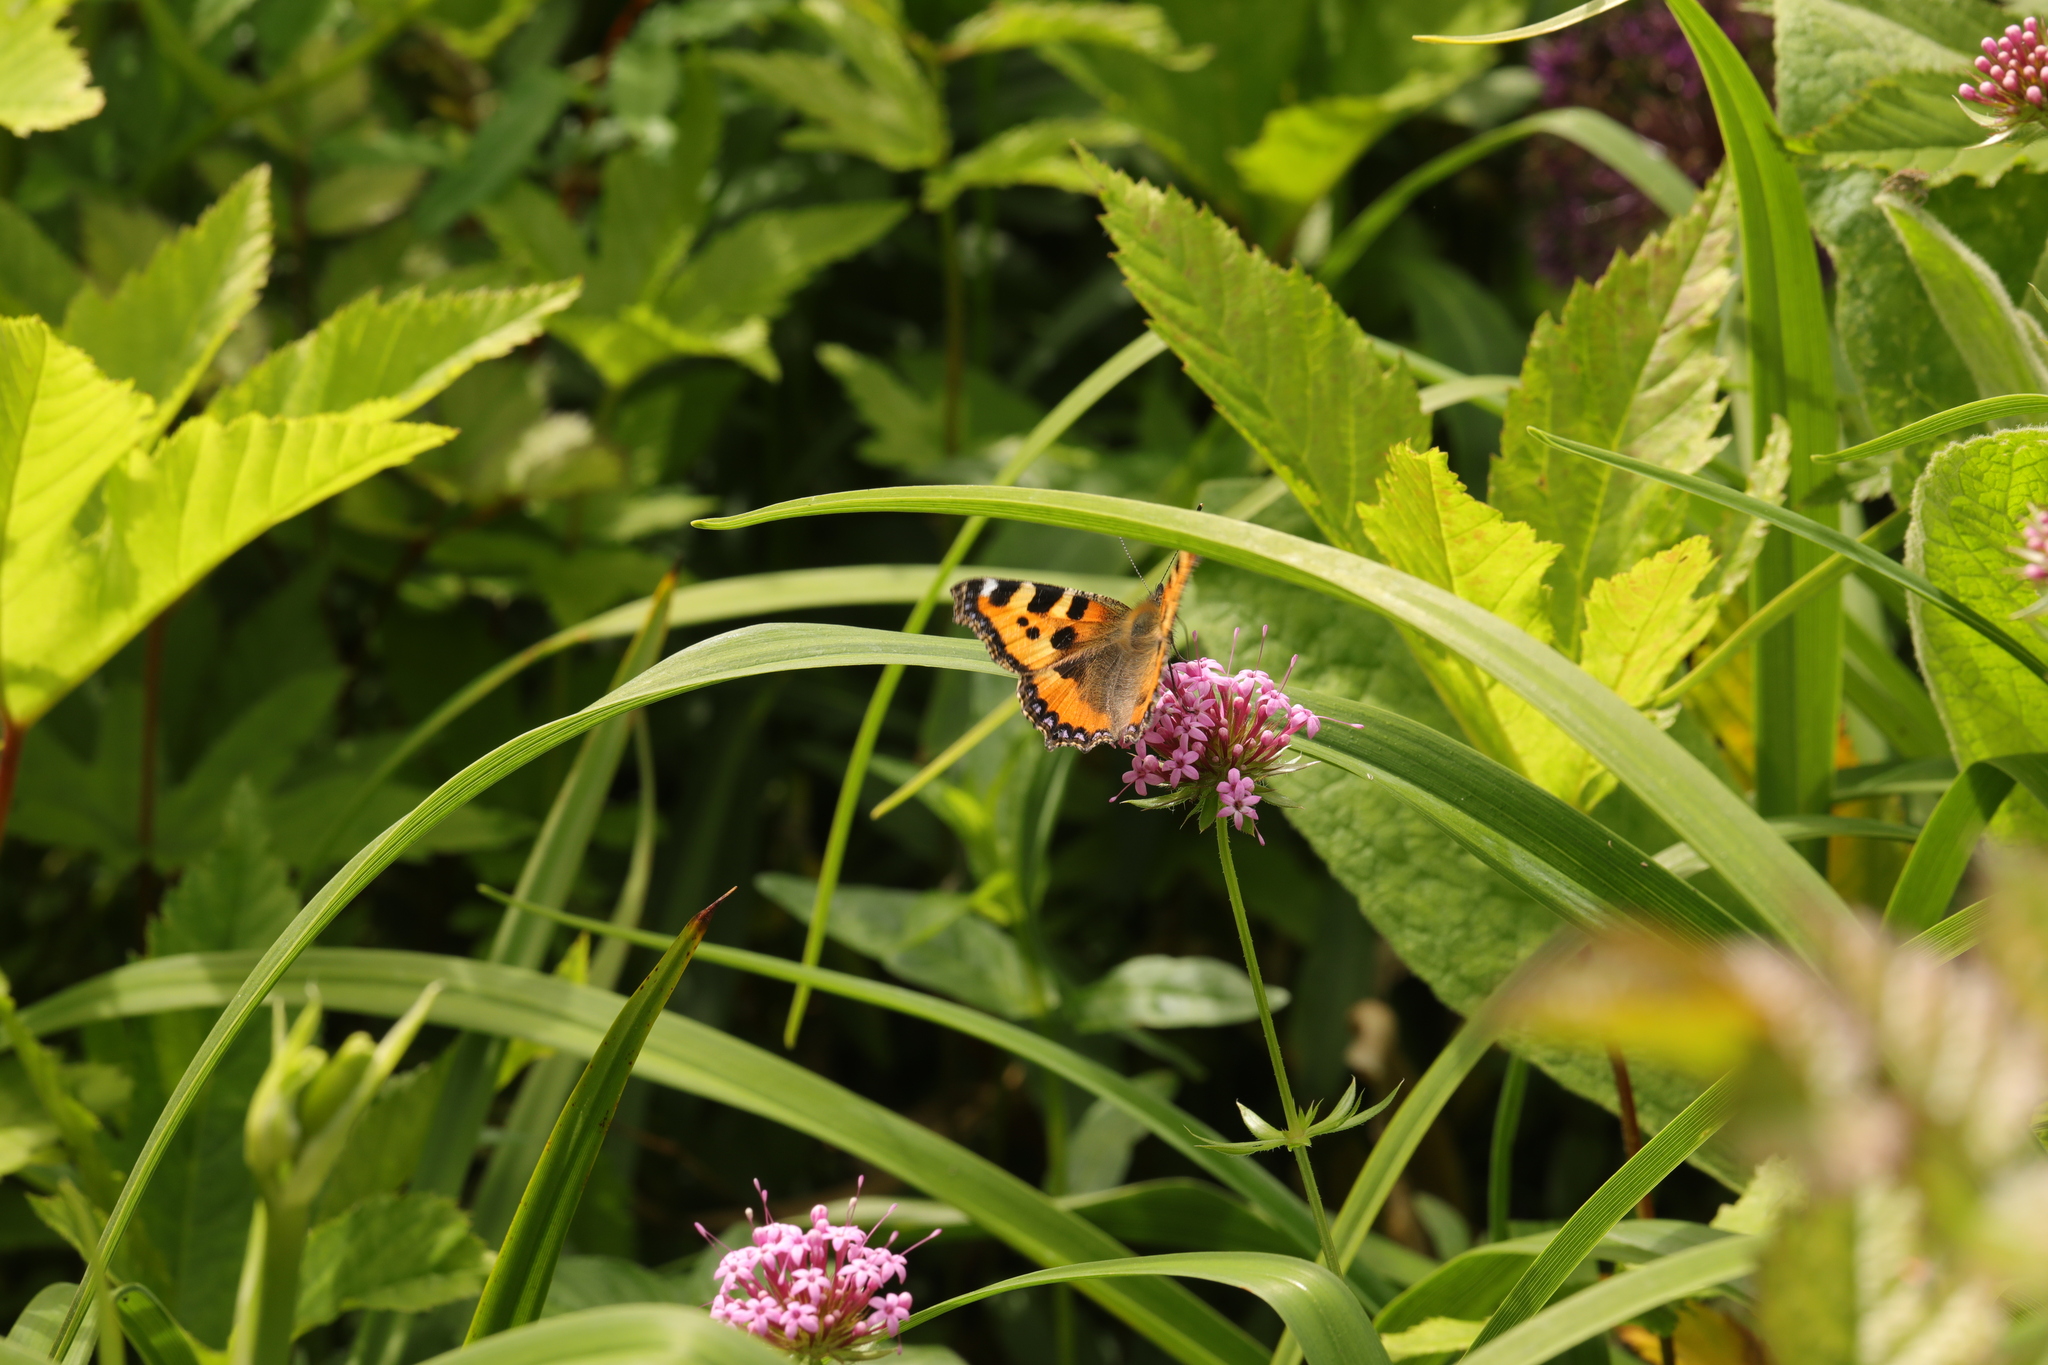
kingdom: Animalia
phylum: Arthropoda
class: Insecta
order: Lepidoptera
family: Nymphalidae
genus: Aglais
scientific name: Aglais urticae
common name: Small tortoiseshell
